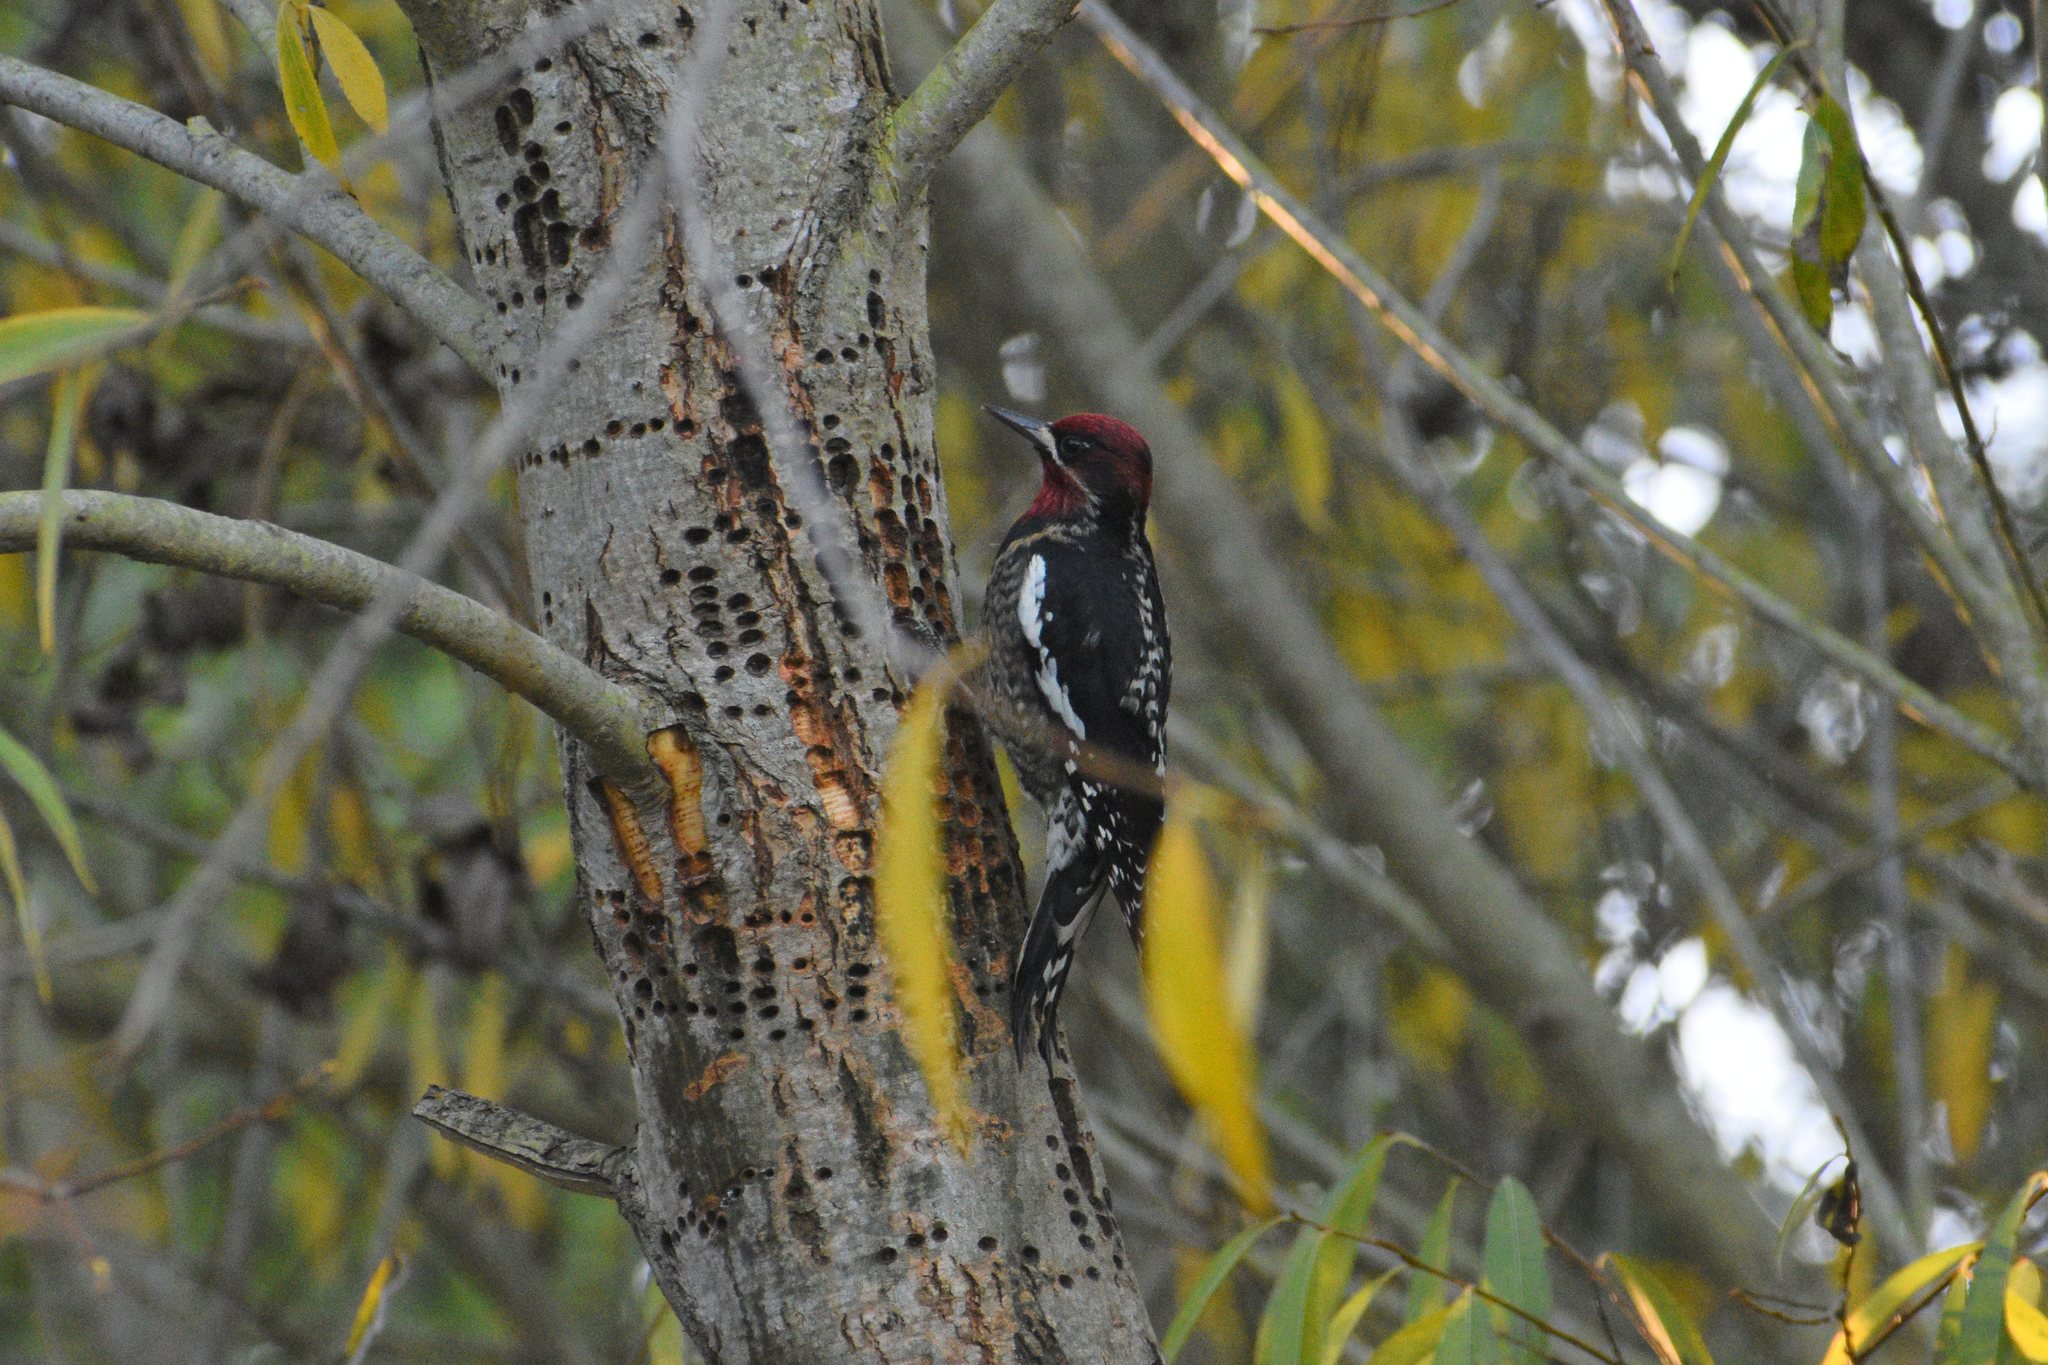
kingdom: Animalia
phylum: Chordata
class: Aves
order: Piciformes
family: Picidae
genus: Sphyrapicus
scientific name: Sphyrapicus
